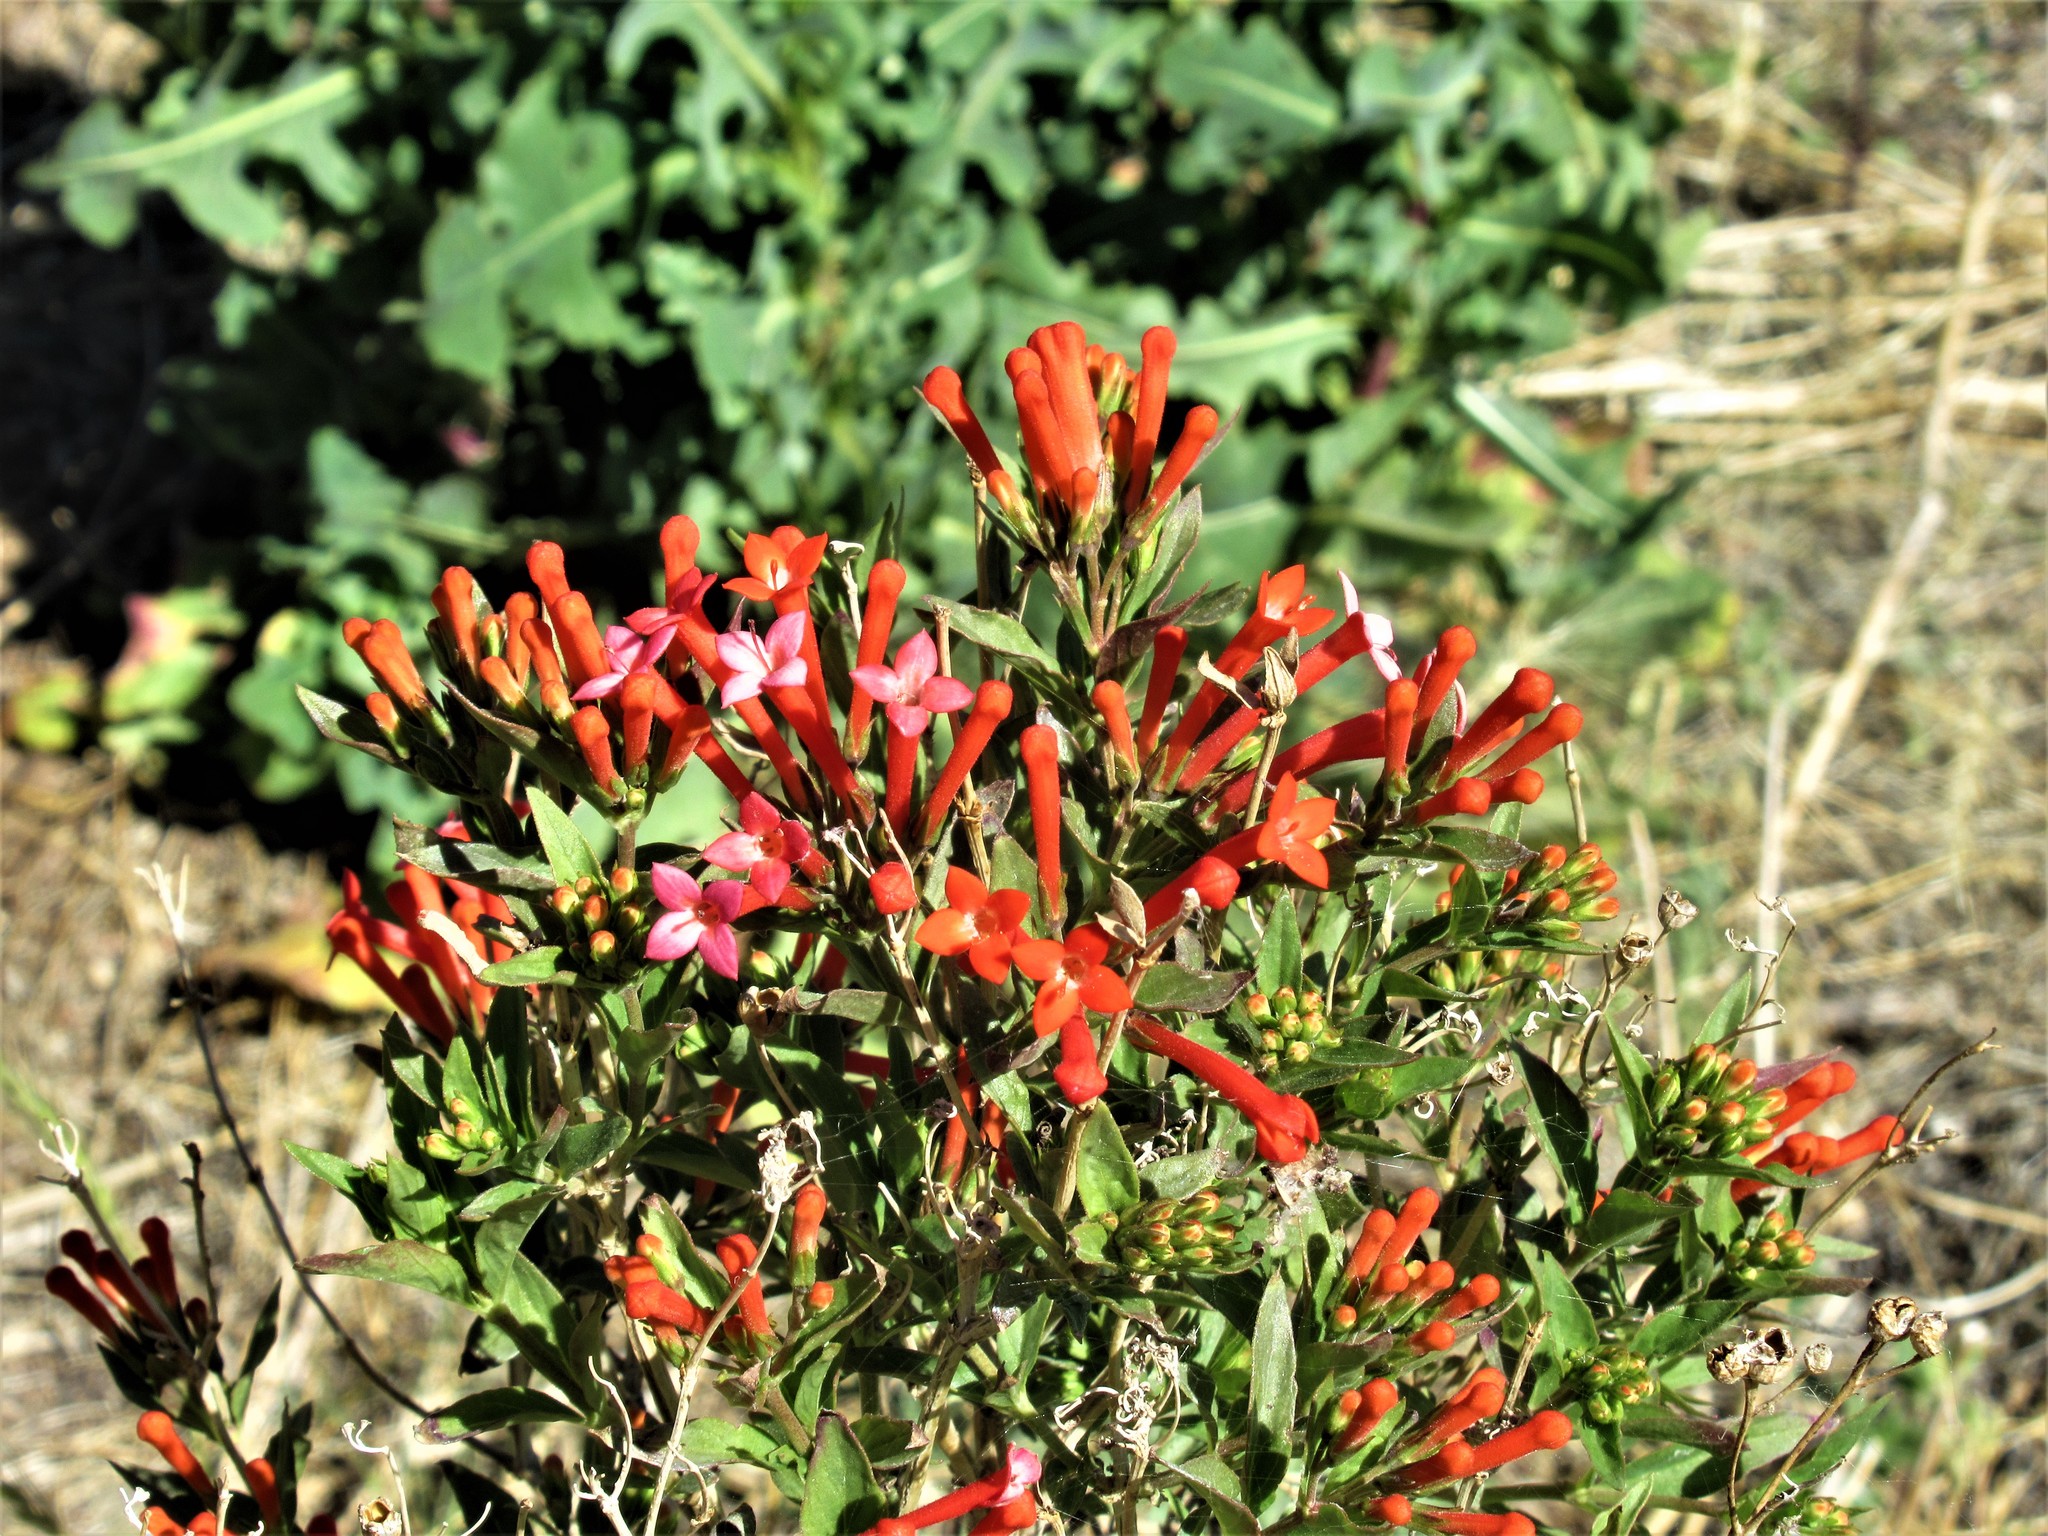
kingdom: Plantae
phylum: Tracheophyta
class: Magnoliopsida
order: Gentianales
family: Rubiaceae
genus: Bouvardia
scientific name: Bouvardia ternifolia
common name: Scarlet bouvardia
